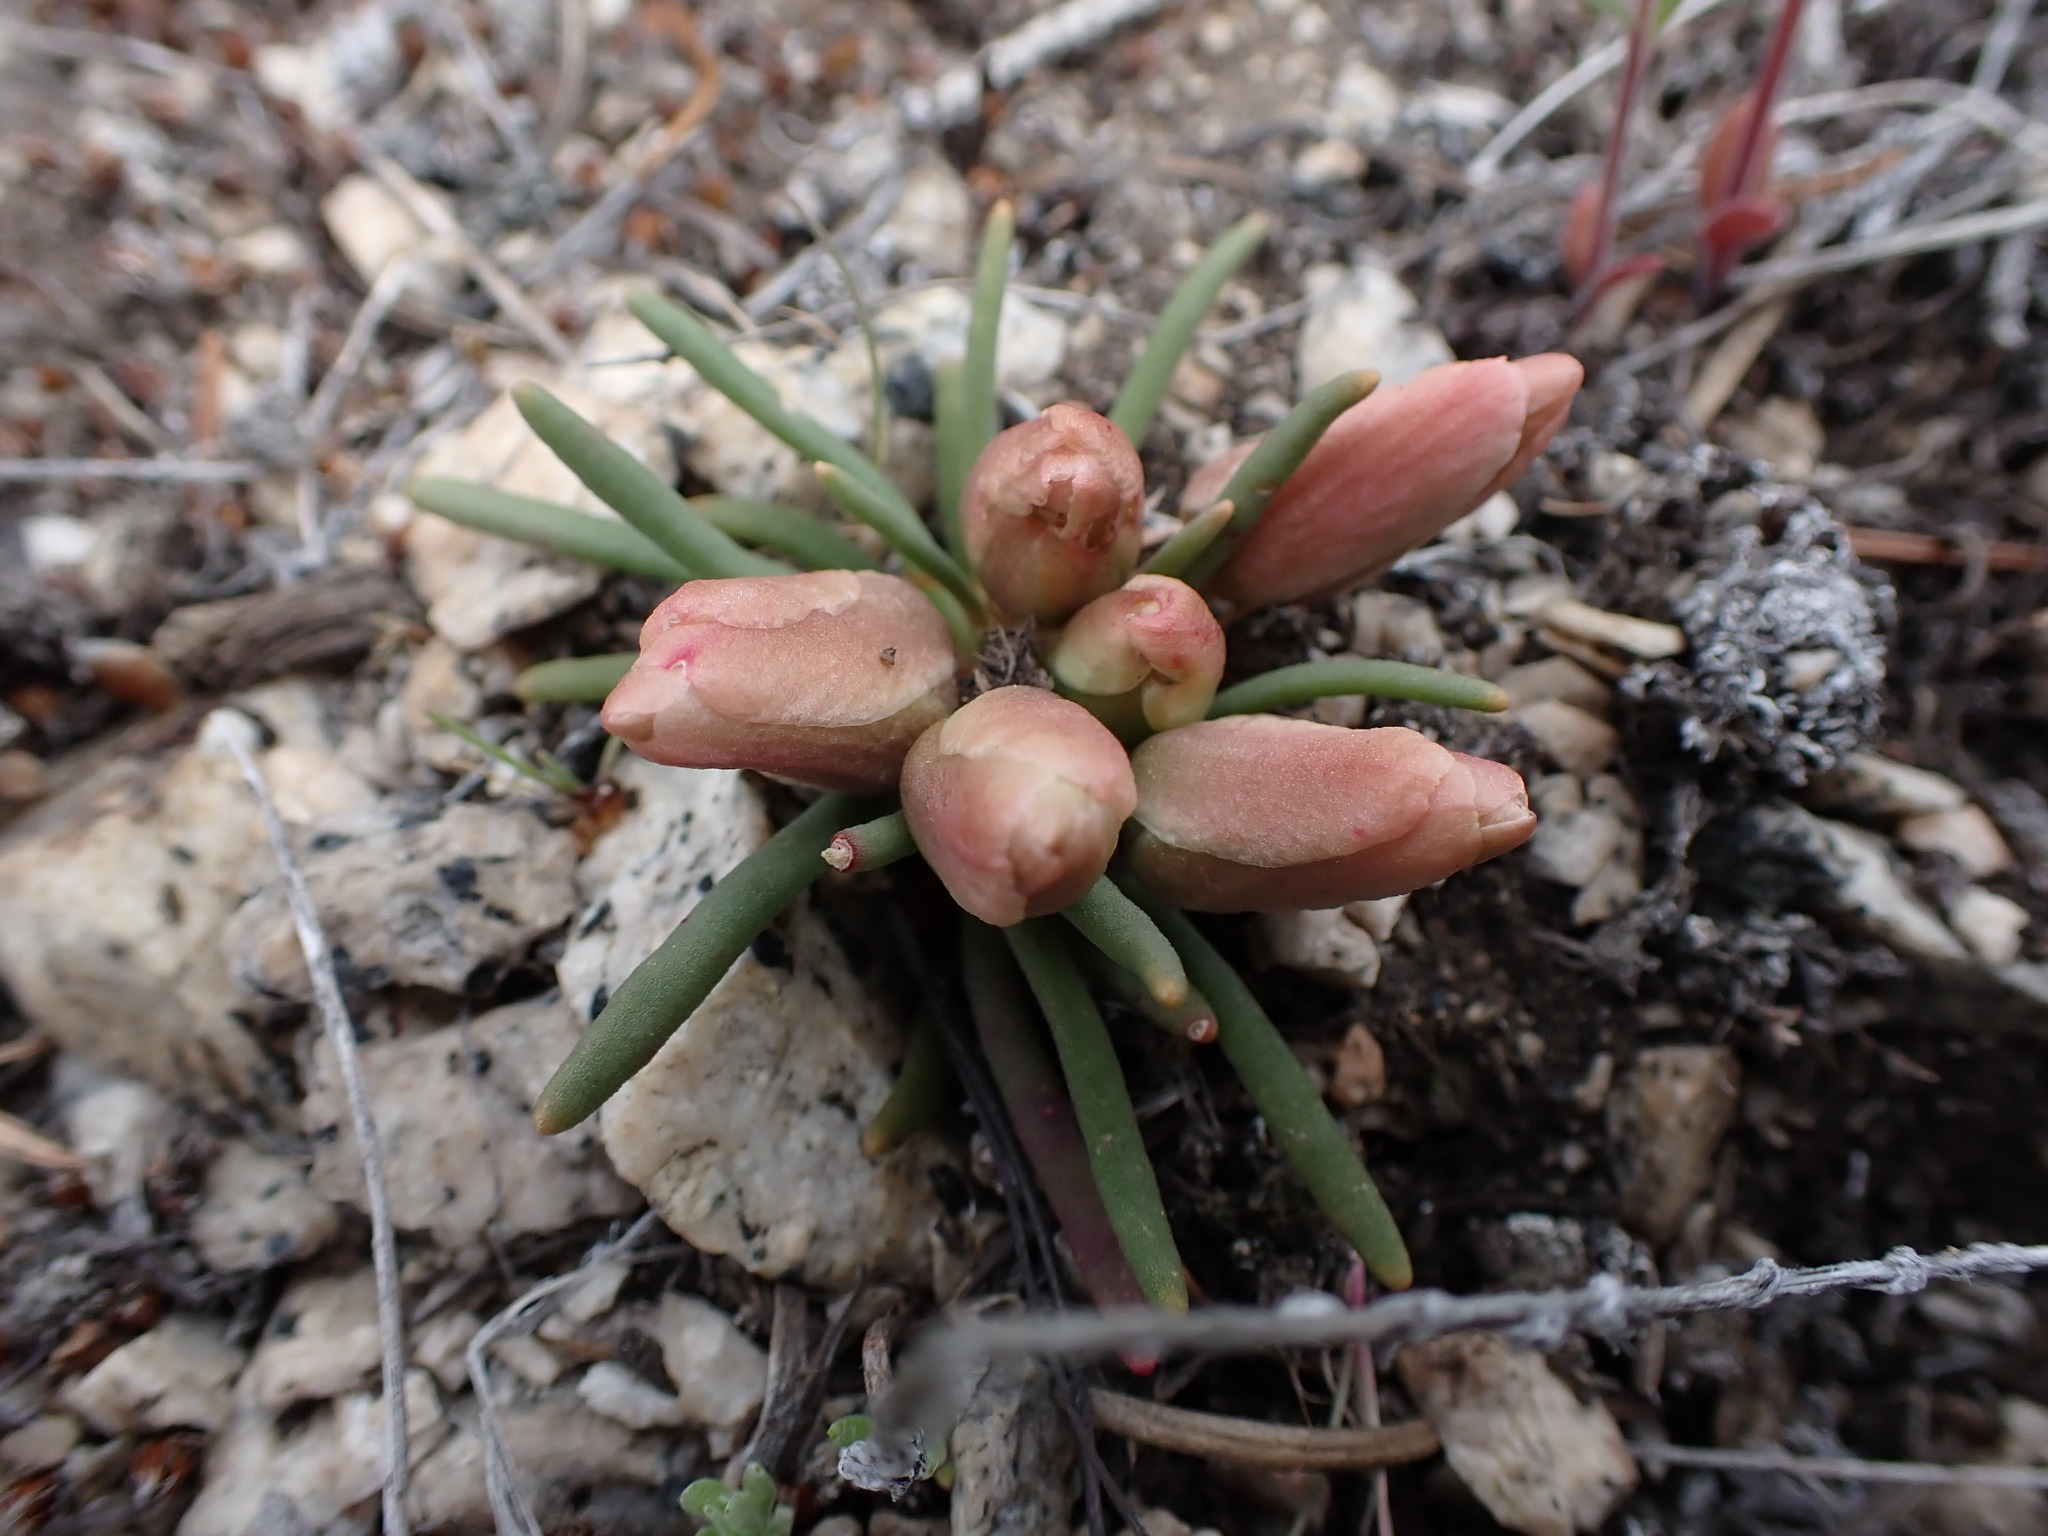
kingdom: Plantae
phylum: Tracheophyta
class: Magnoliopsida
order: Caryophyllales
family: Montiaceae
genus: Lewisia
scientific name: Lewisia rediviva
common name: Bitter-root
